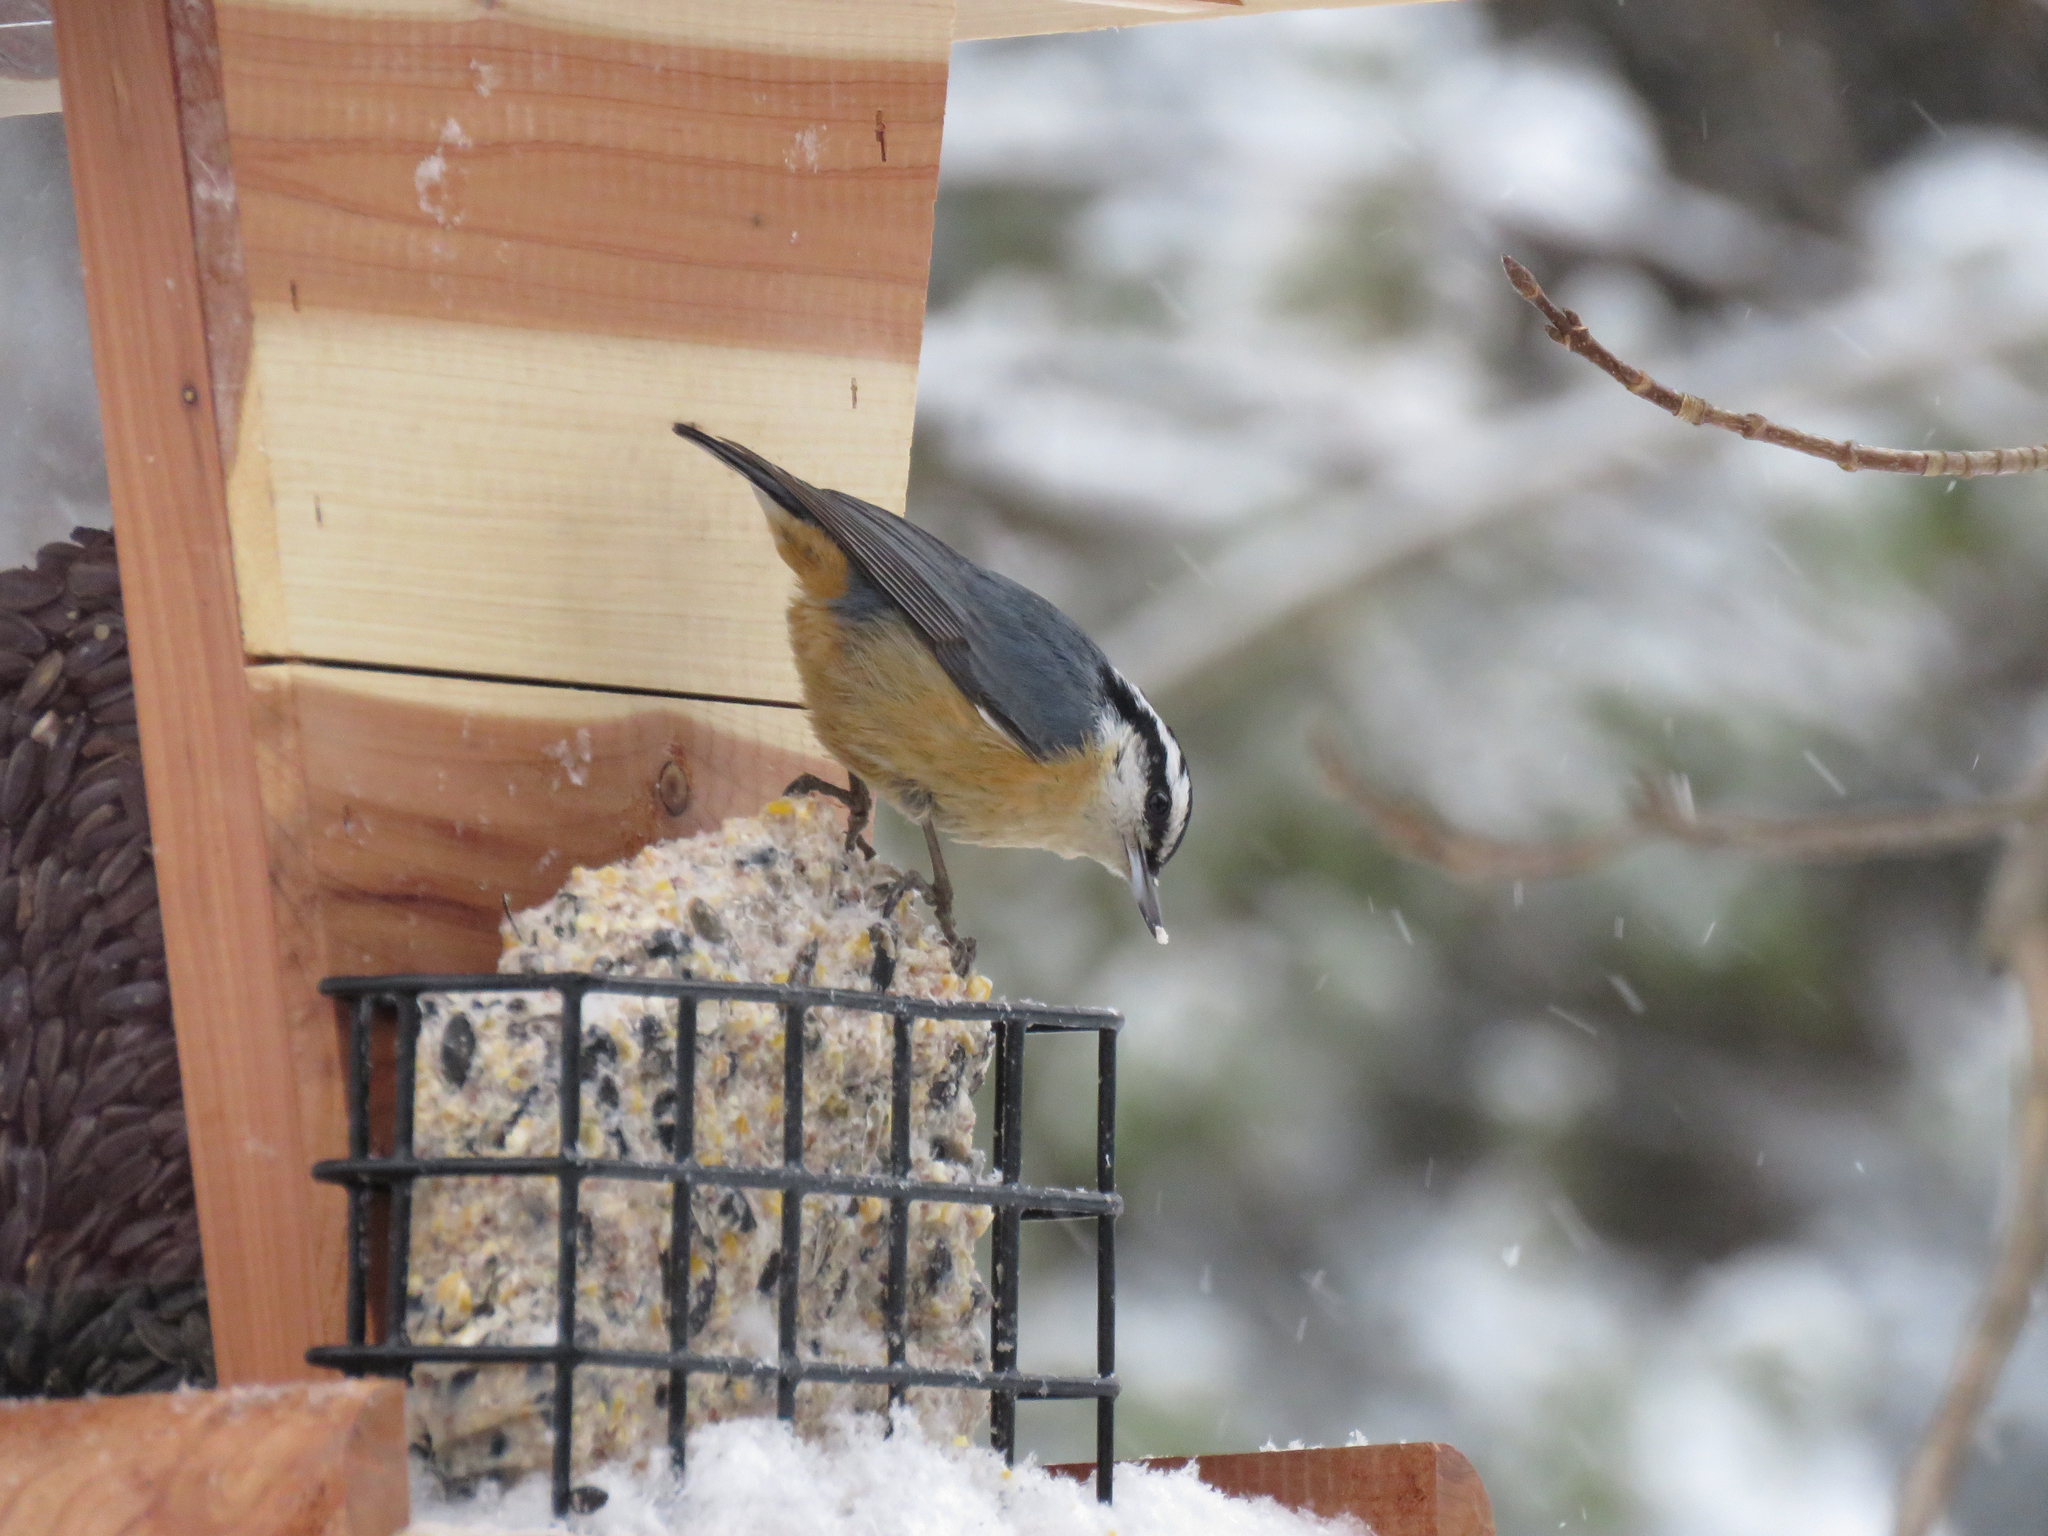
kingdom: Animalia
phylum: Chordata
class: Aves
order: Passeriformes
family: Sittidae
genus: Sitta
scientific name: Sitta canadensis
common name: Red-breasted nuthatch
